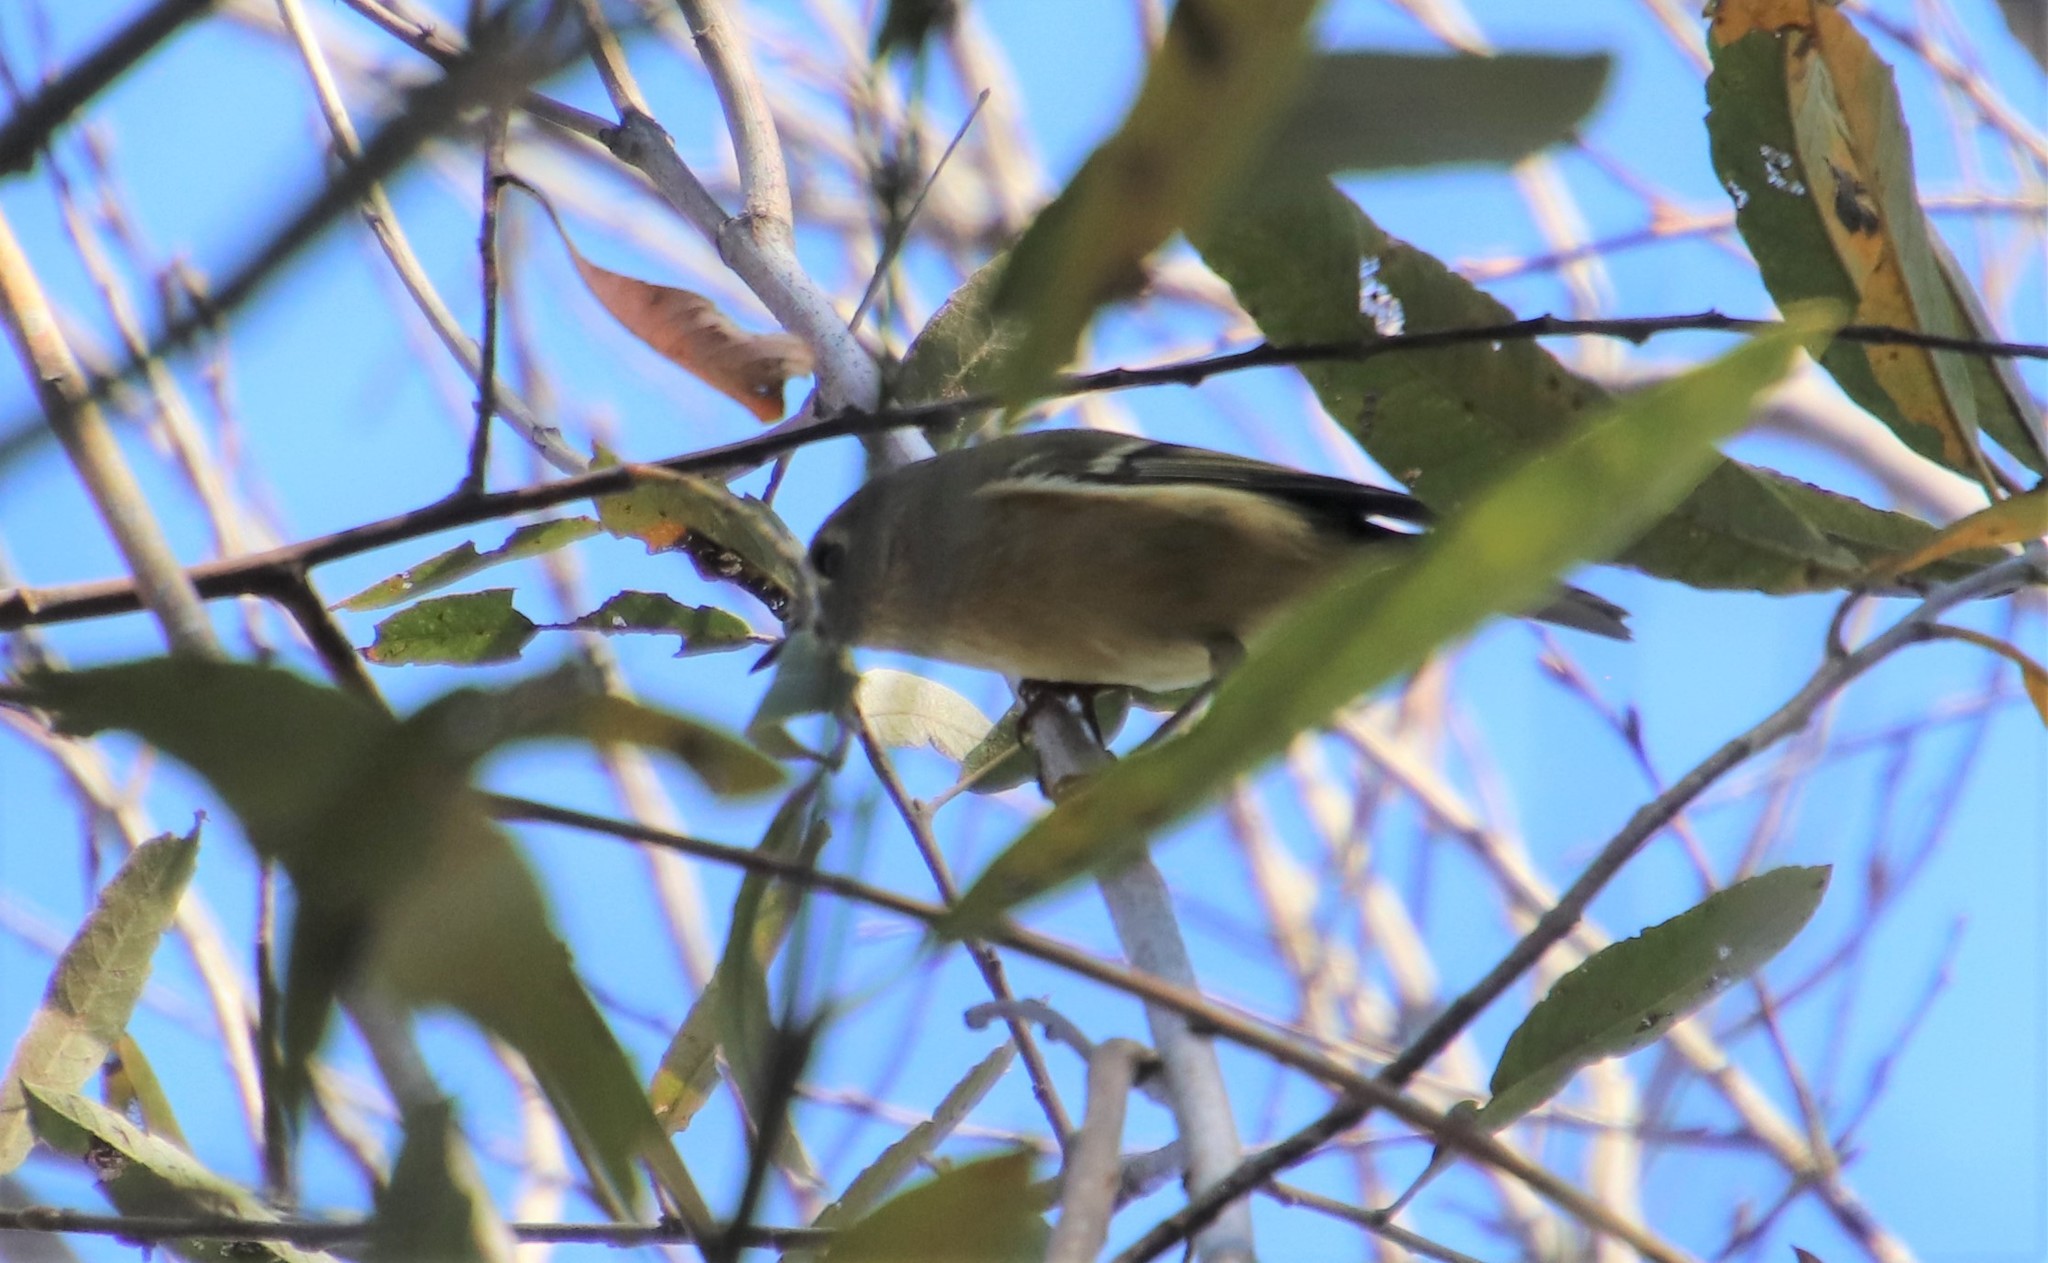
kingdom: Animalia
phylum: Chordata
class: Aves
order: Passeriformes
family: Regulidae
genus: Regulus
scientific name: Regulus calendula
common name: Ruby-crowned kinglet
